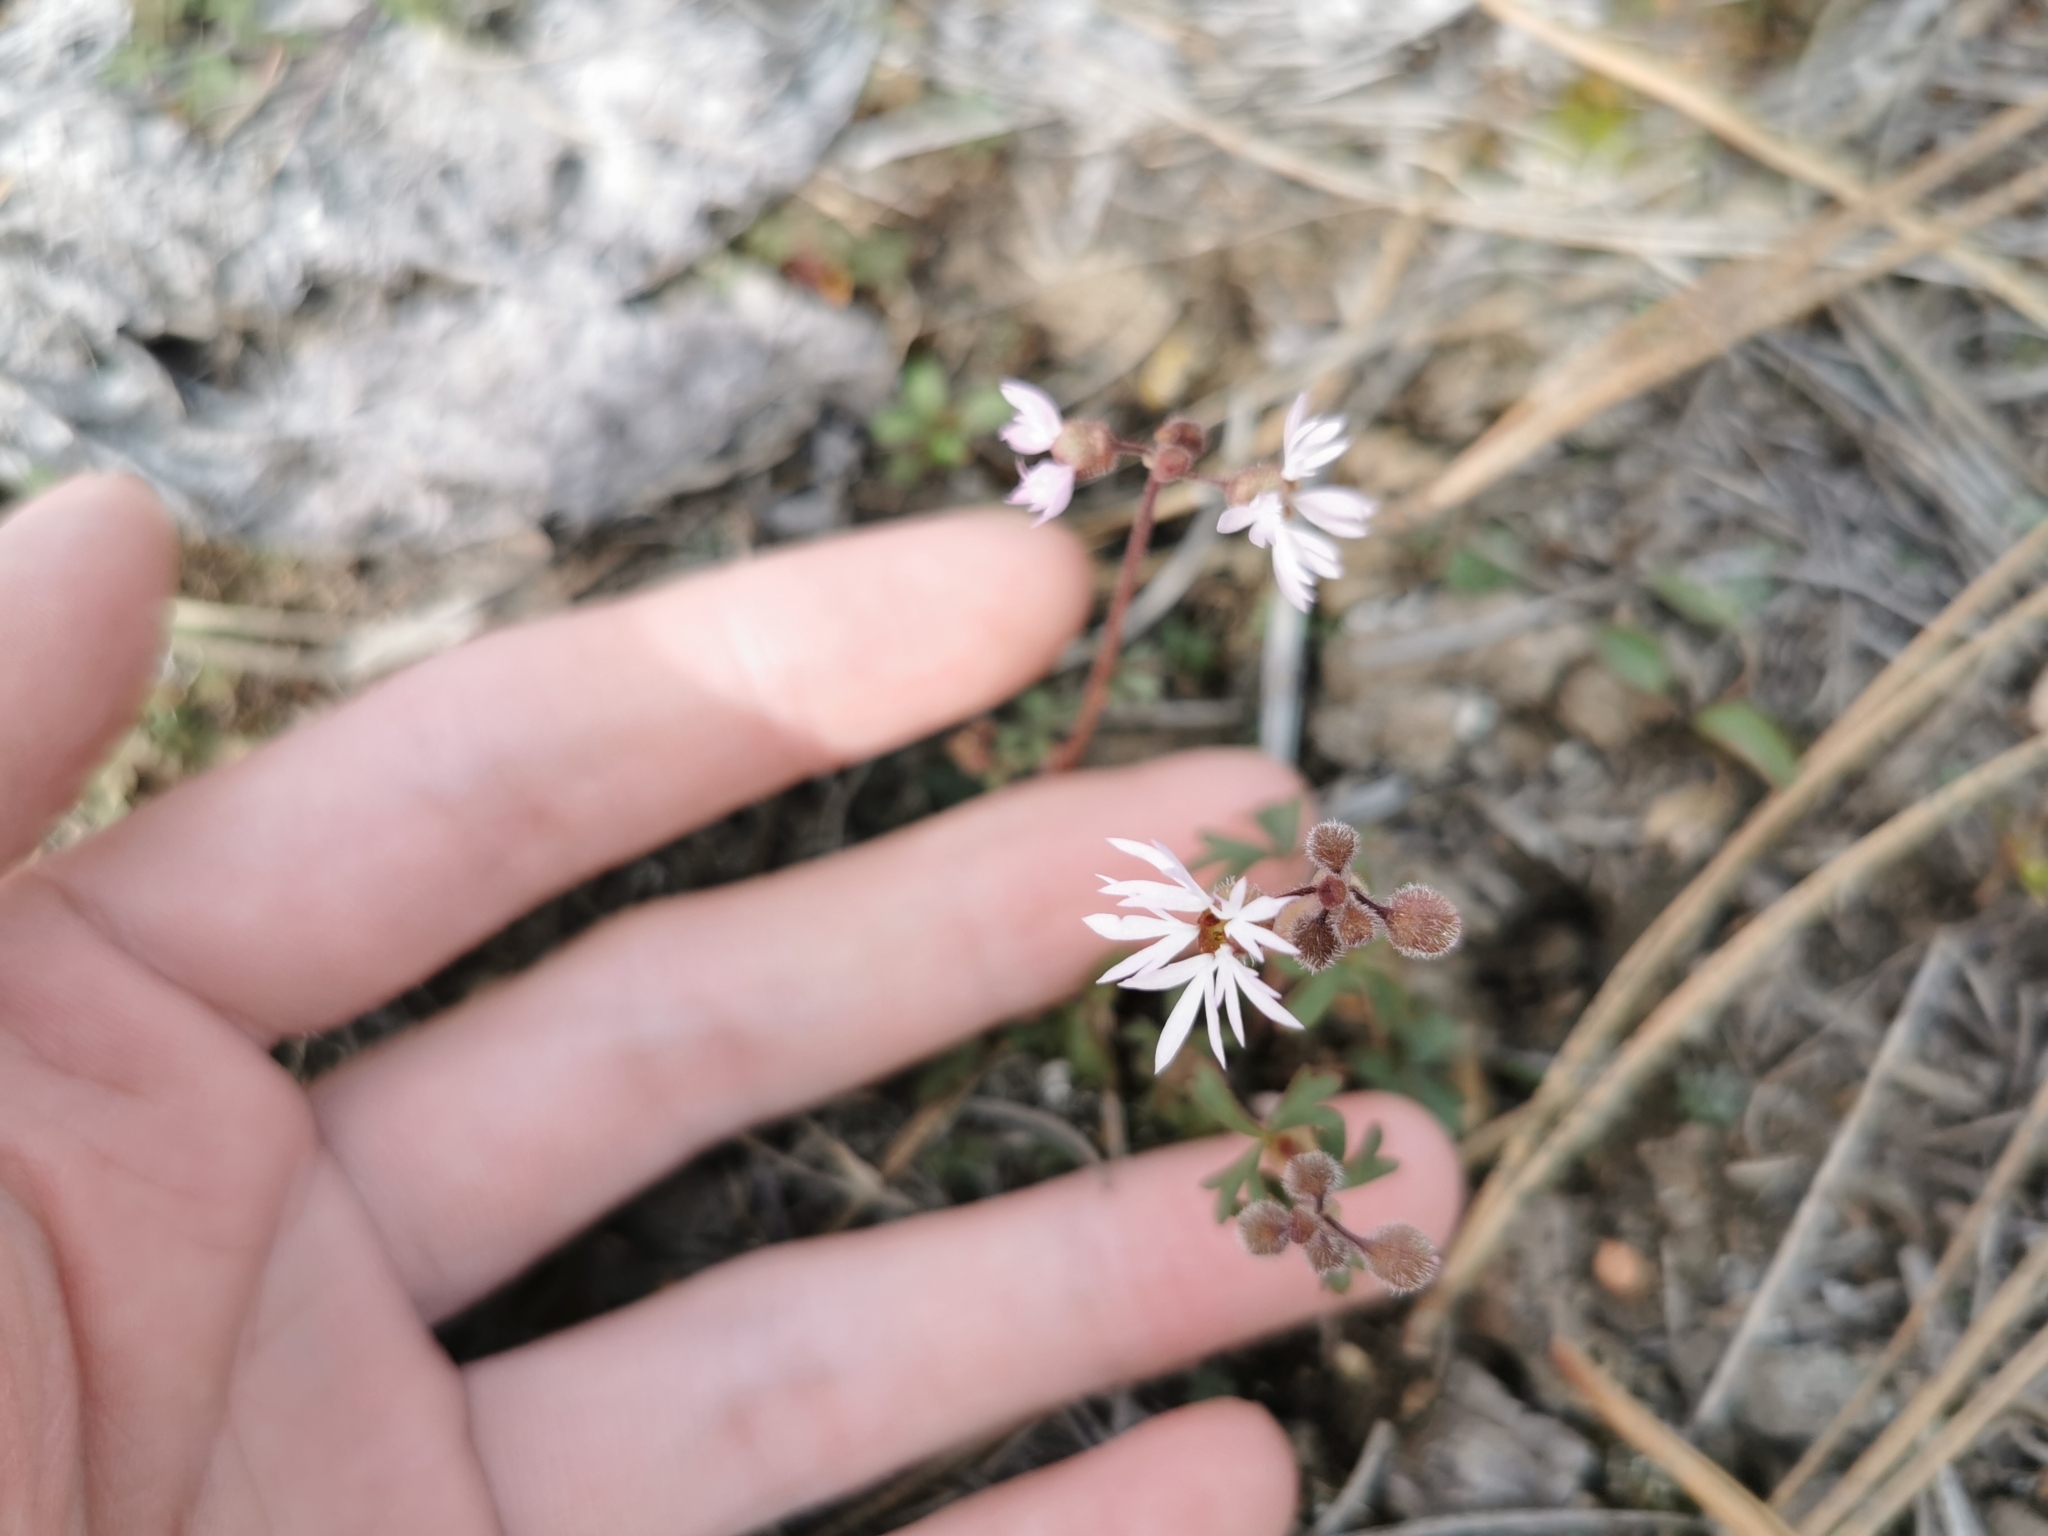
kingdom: Plantae
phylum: Tracheophyta
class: Magnoliopsida
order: Saxifragales
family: Saxifragaceae
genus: Lithophragma
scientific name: Lithophragma glabrum
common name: Bulbous prairie-star
